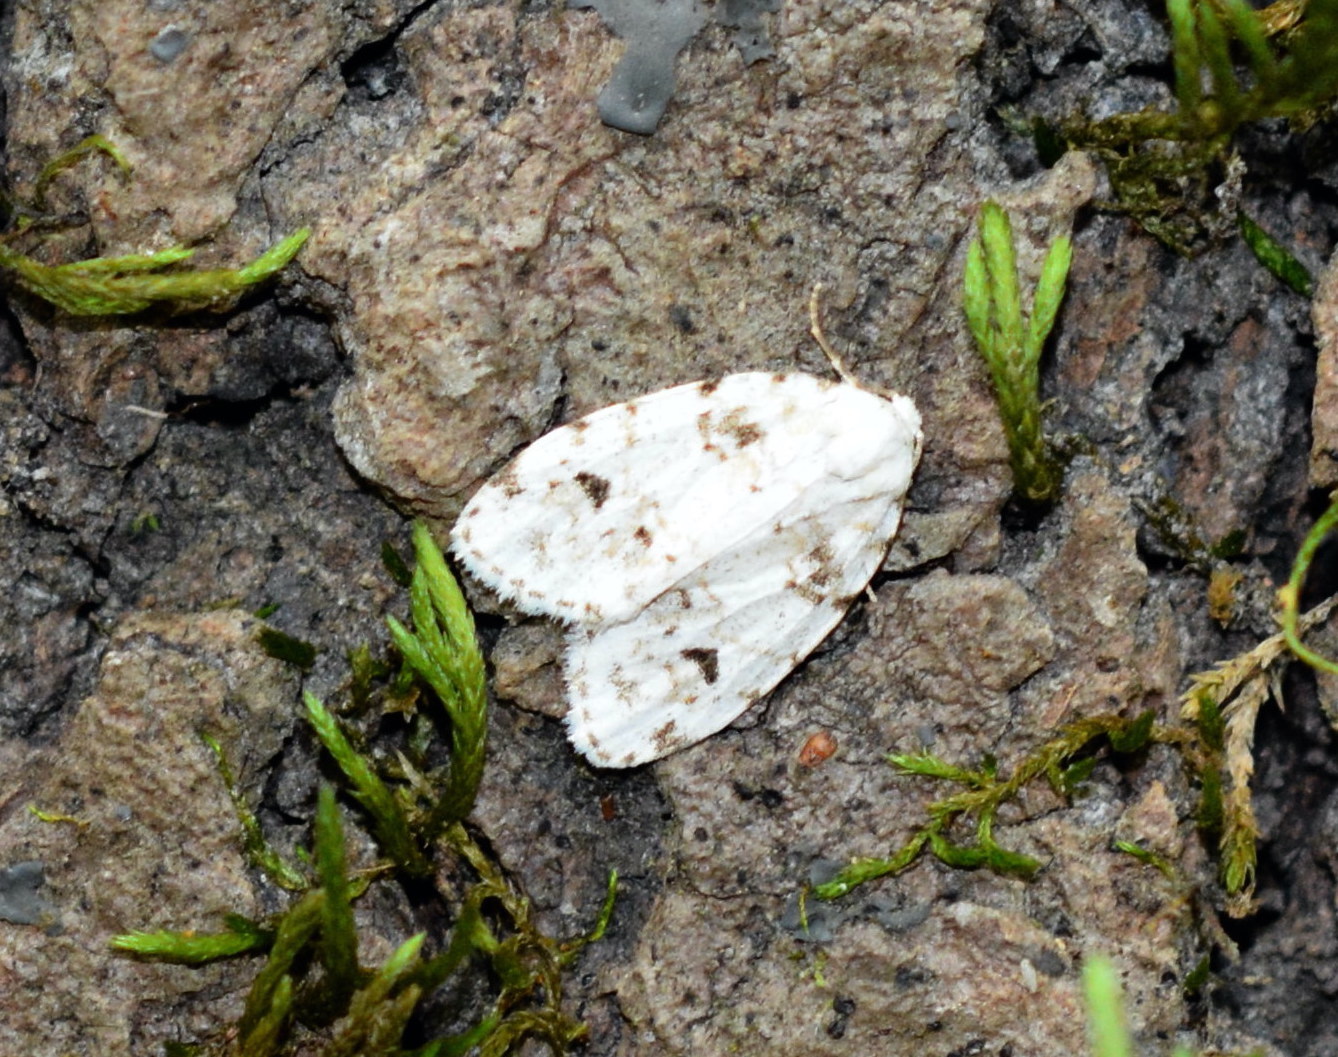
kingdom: Animalia
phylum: Arthropoda
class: Insecta
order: Lepidoptera
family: Erebidae
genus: Clemensia
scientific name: Clemensia albata
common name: Little white lichen moth
